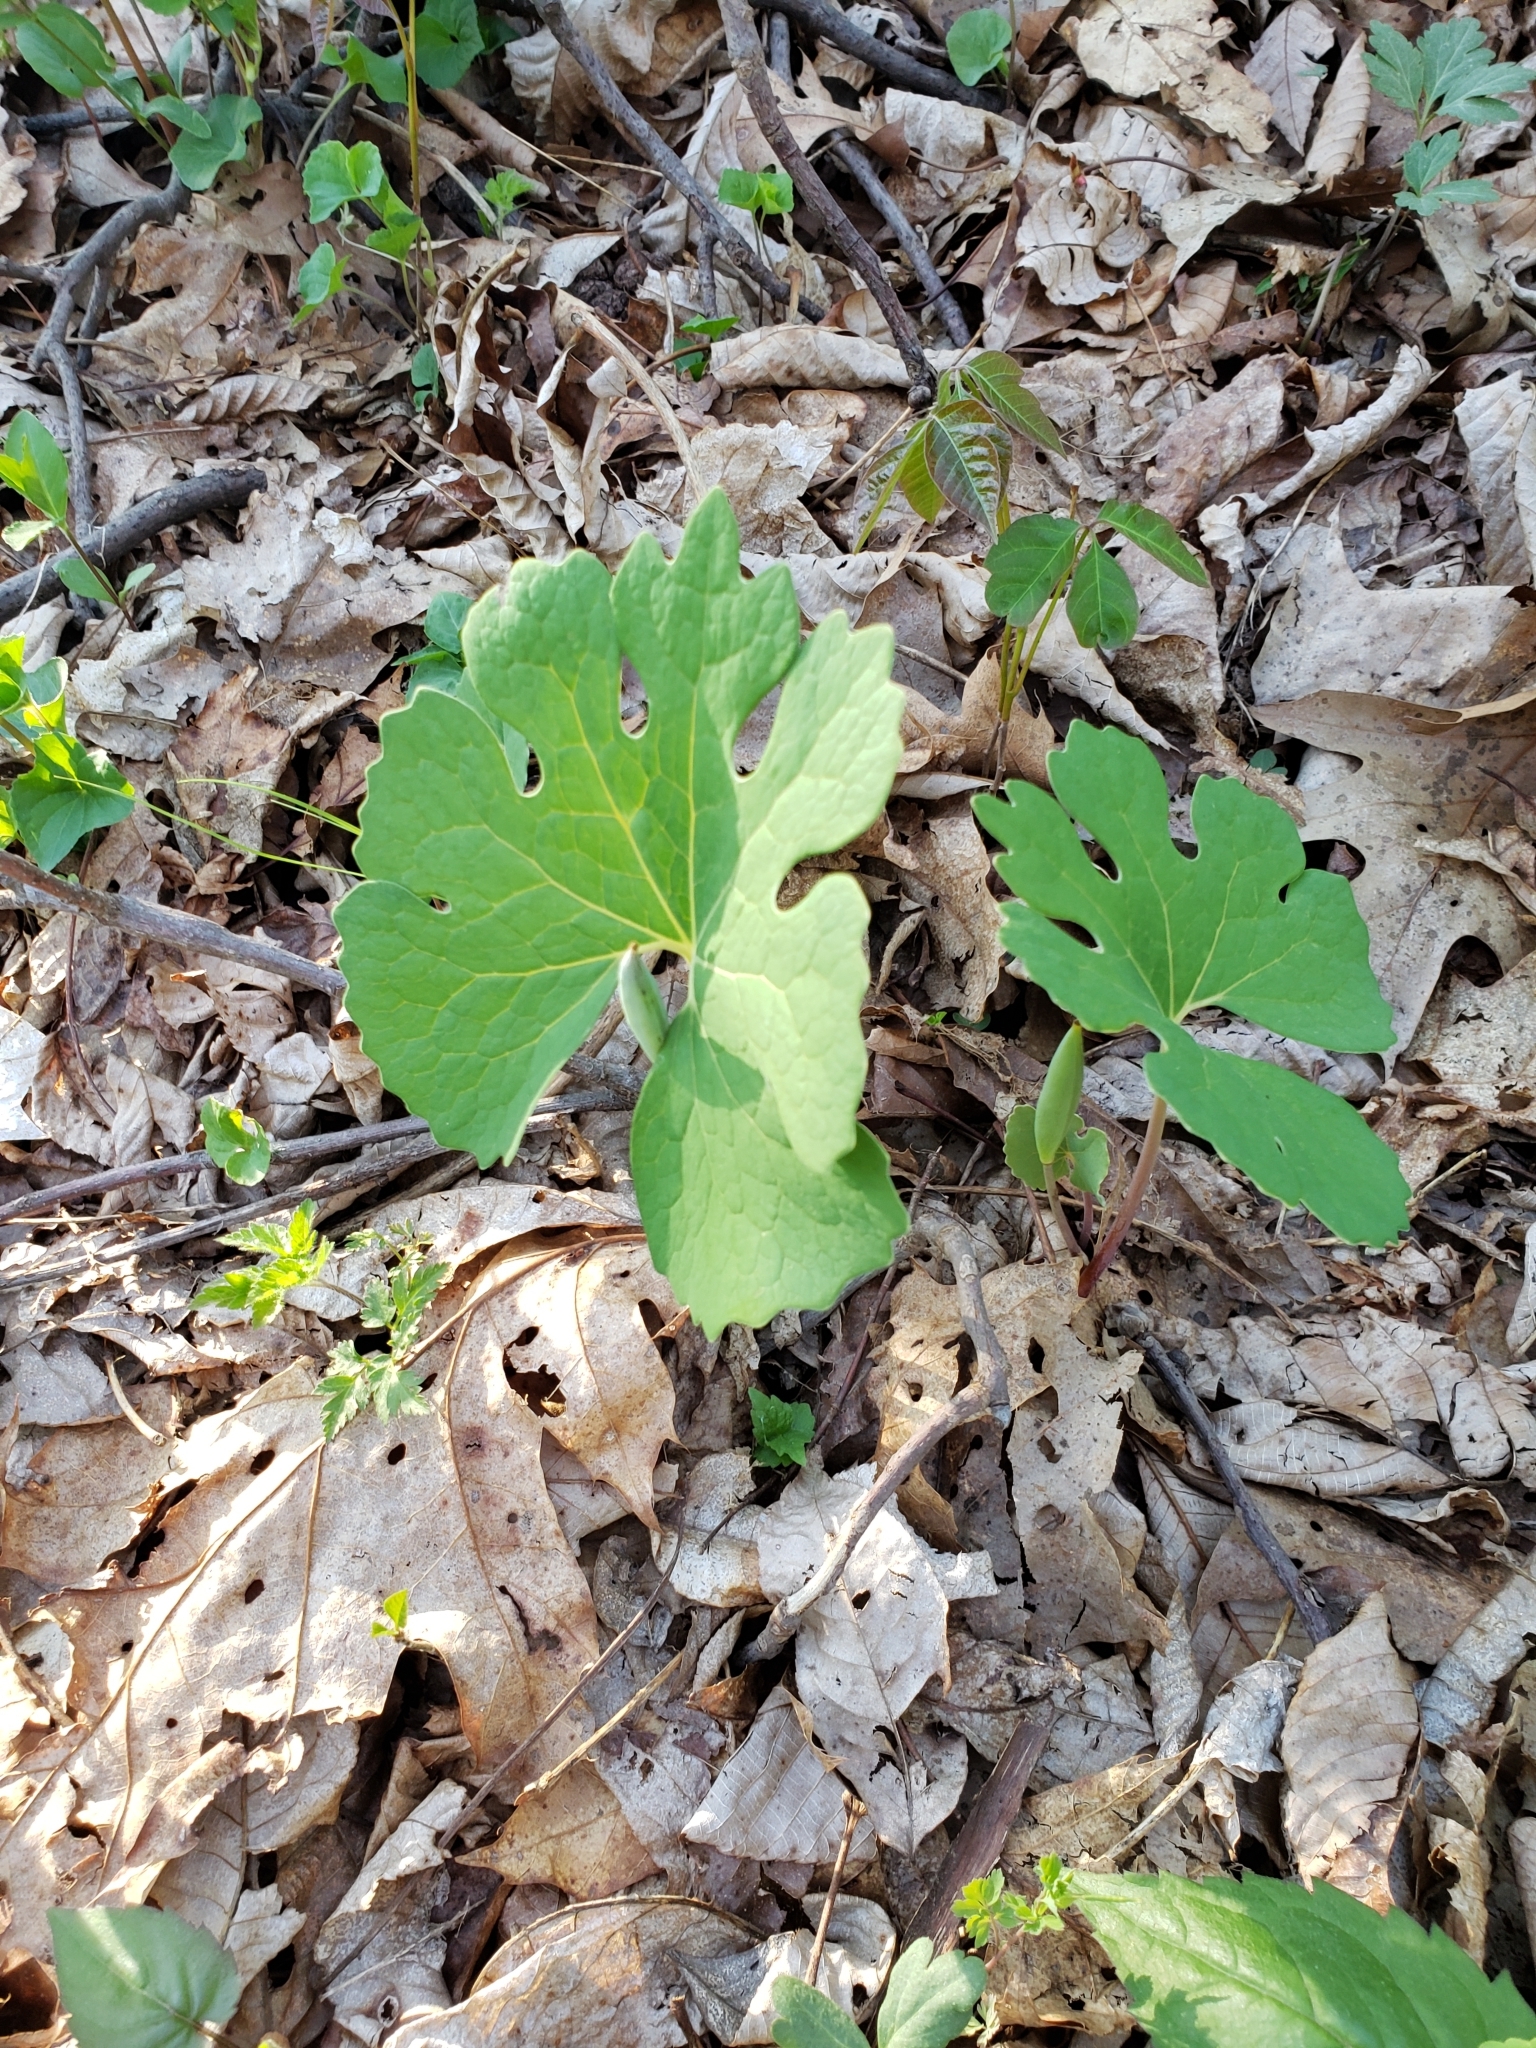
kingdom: Plantae
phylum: Tracheophyta
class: Magnoliopsida
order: Ranunculales
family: Papaveraceae
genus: Sanguinaria
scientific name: Sanguinaria canadensis
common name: Bloodroot
